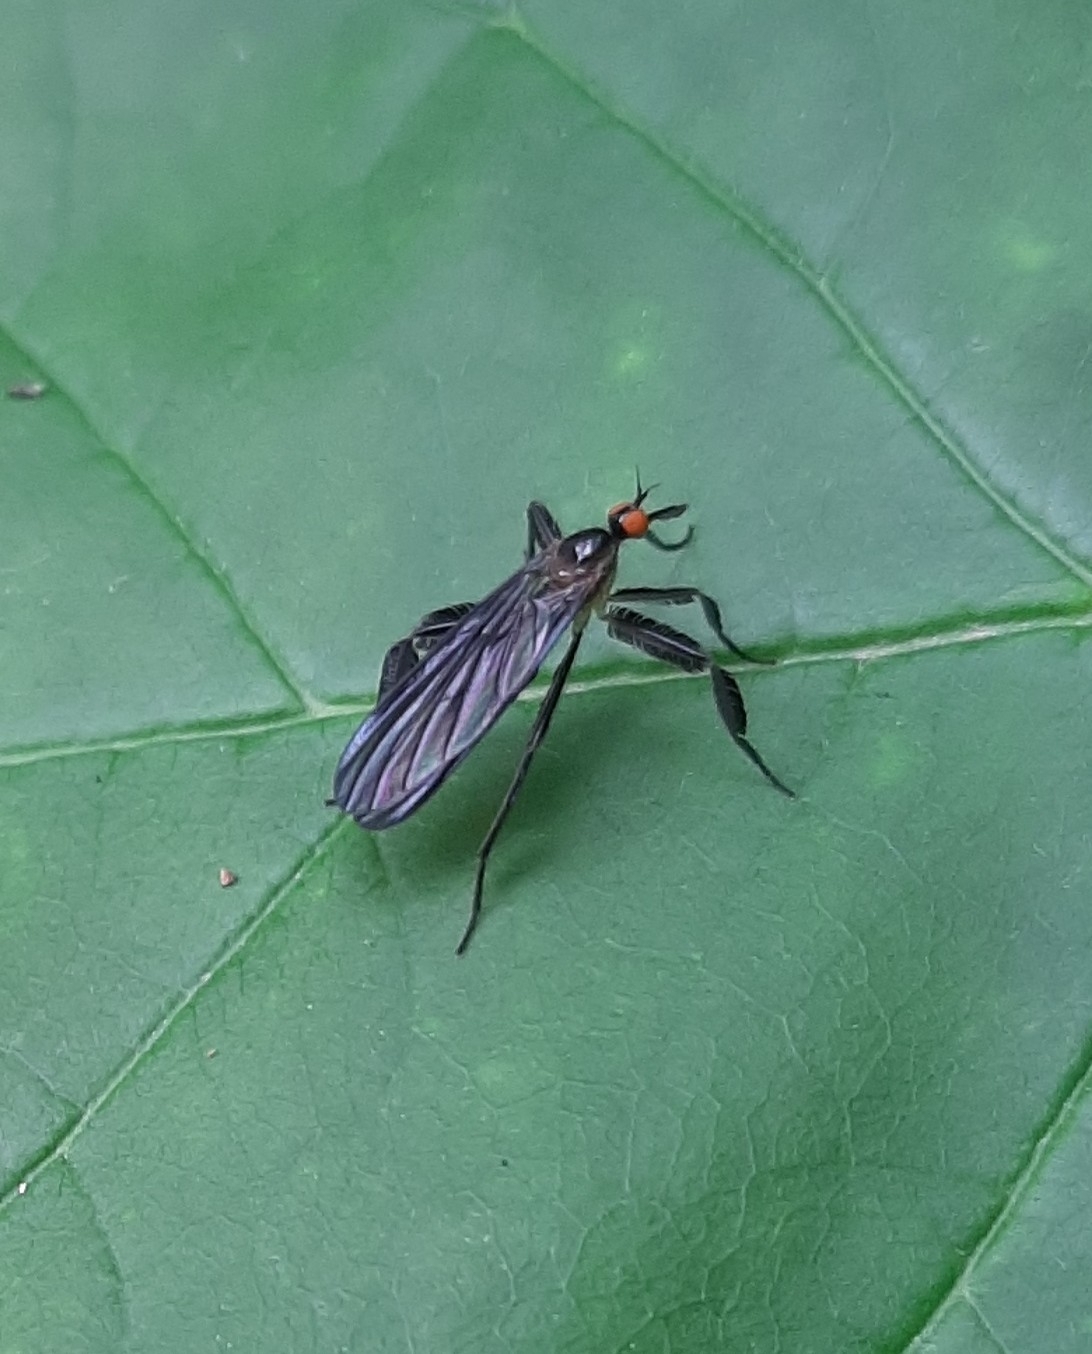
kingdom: Animalia
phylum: Arthropoda
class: Insecta
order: Diptera
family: Empididae
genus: Rhamphomyia
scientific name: Rhamphomyia longicauda
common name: Long-tailed dance fly
